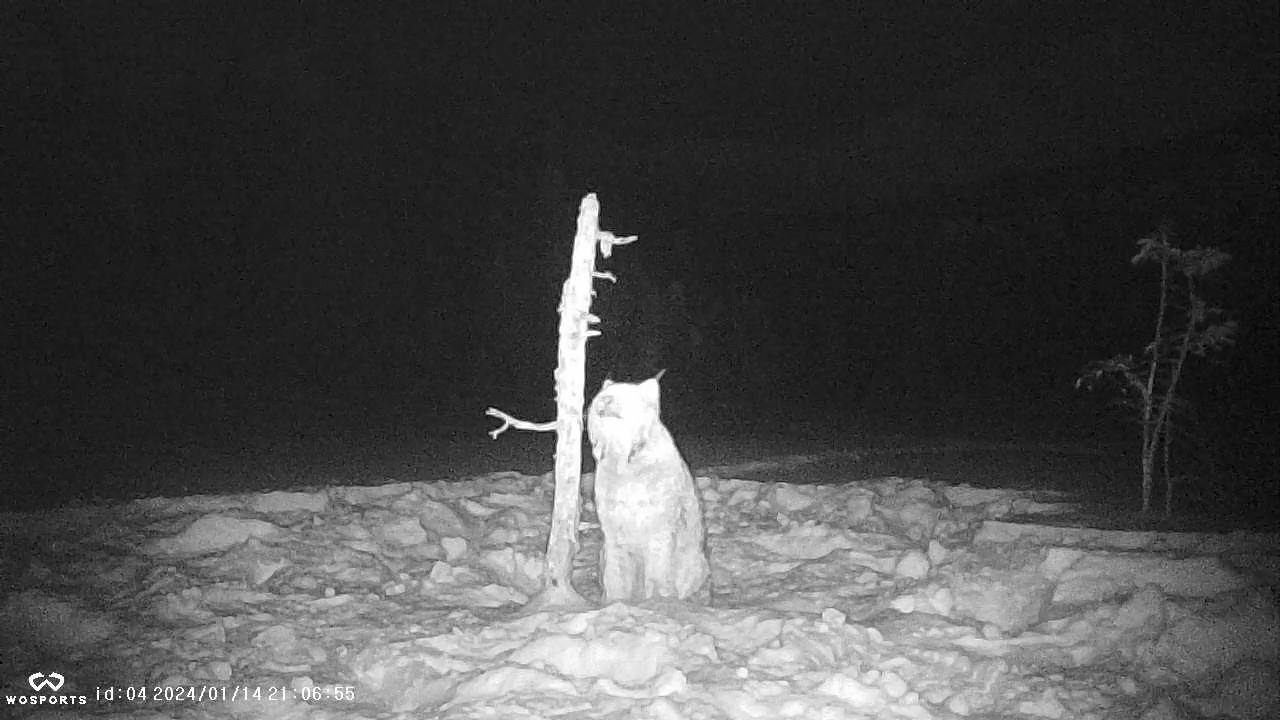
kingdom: Animalia
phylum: Chordata
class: Mammalia
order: Carnivora
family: Felidae
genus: Lynx
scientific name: Lynx canadensis
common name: Canadian lynx
